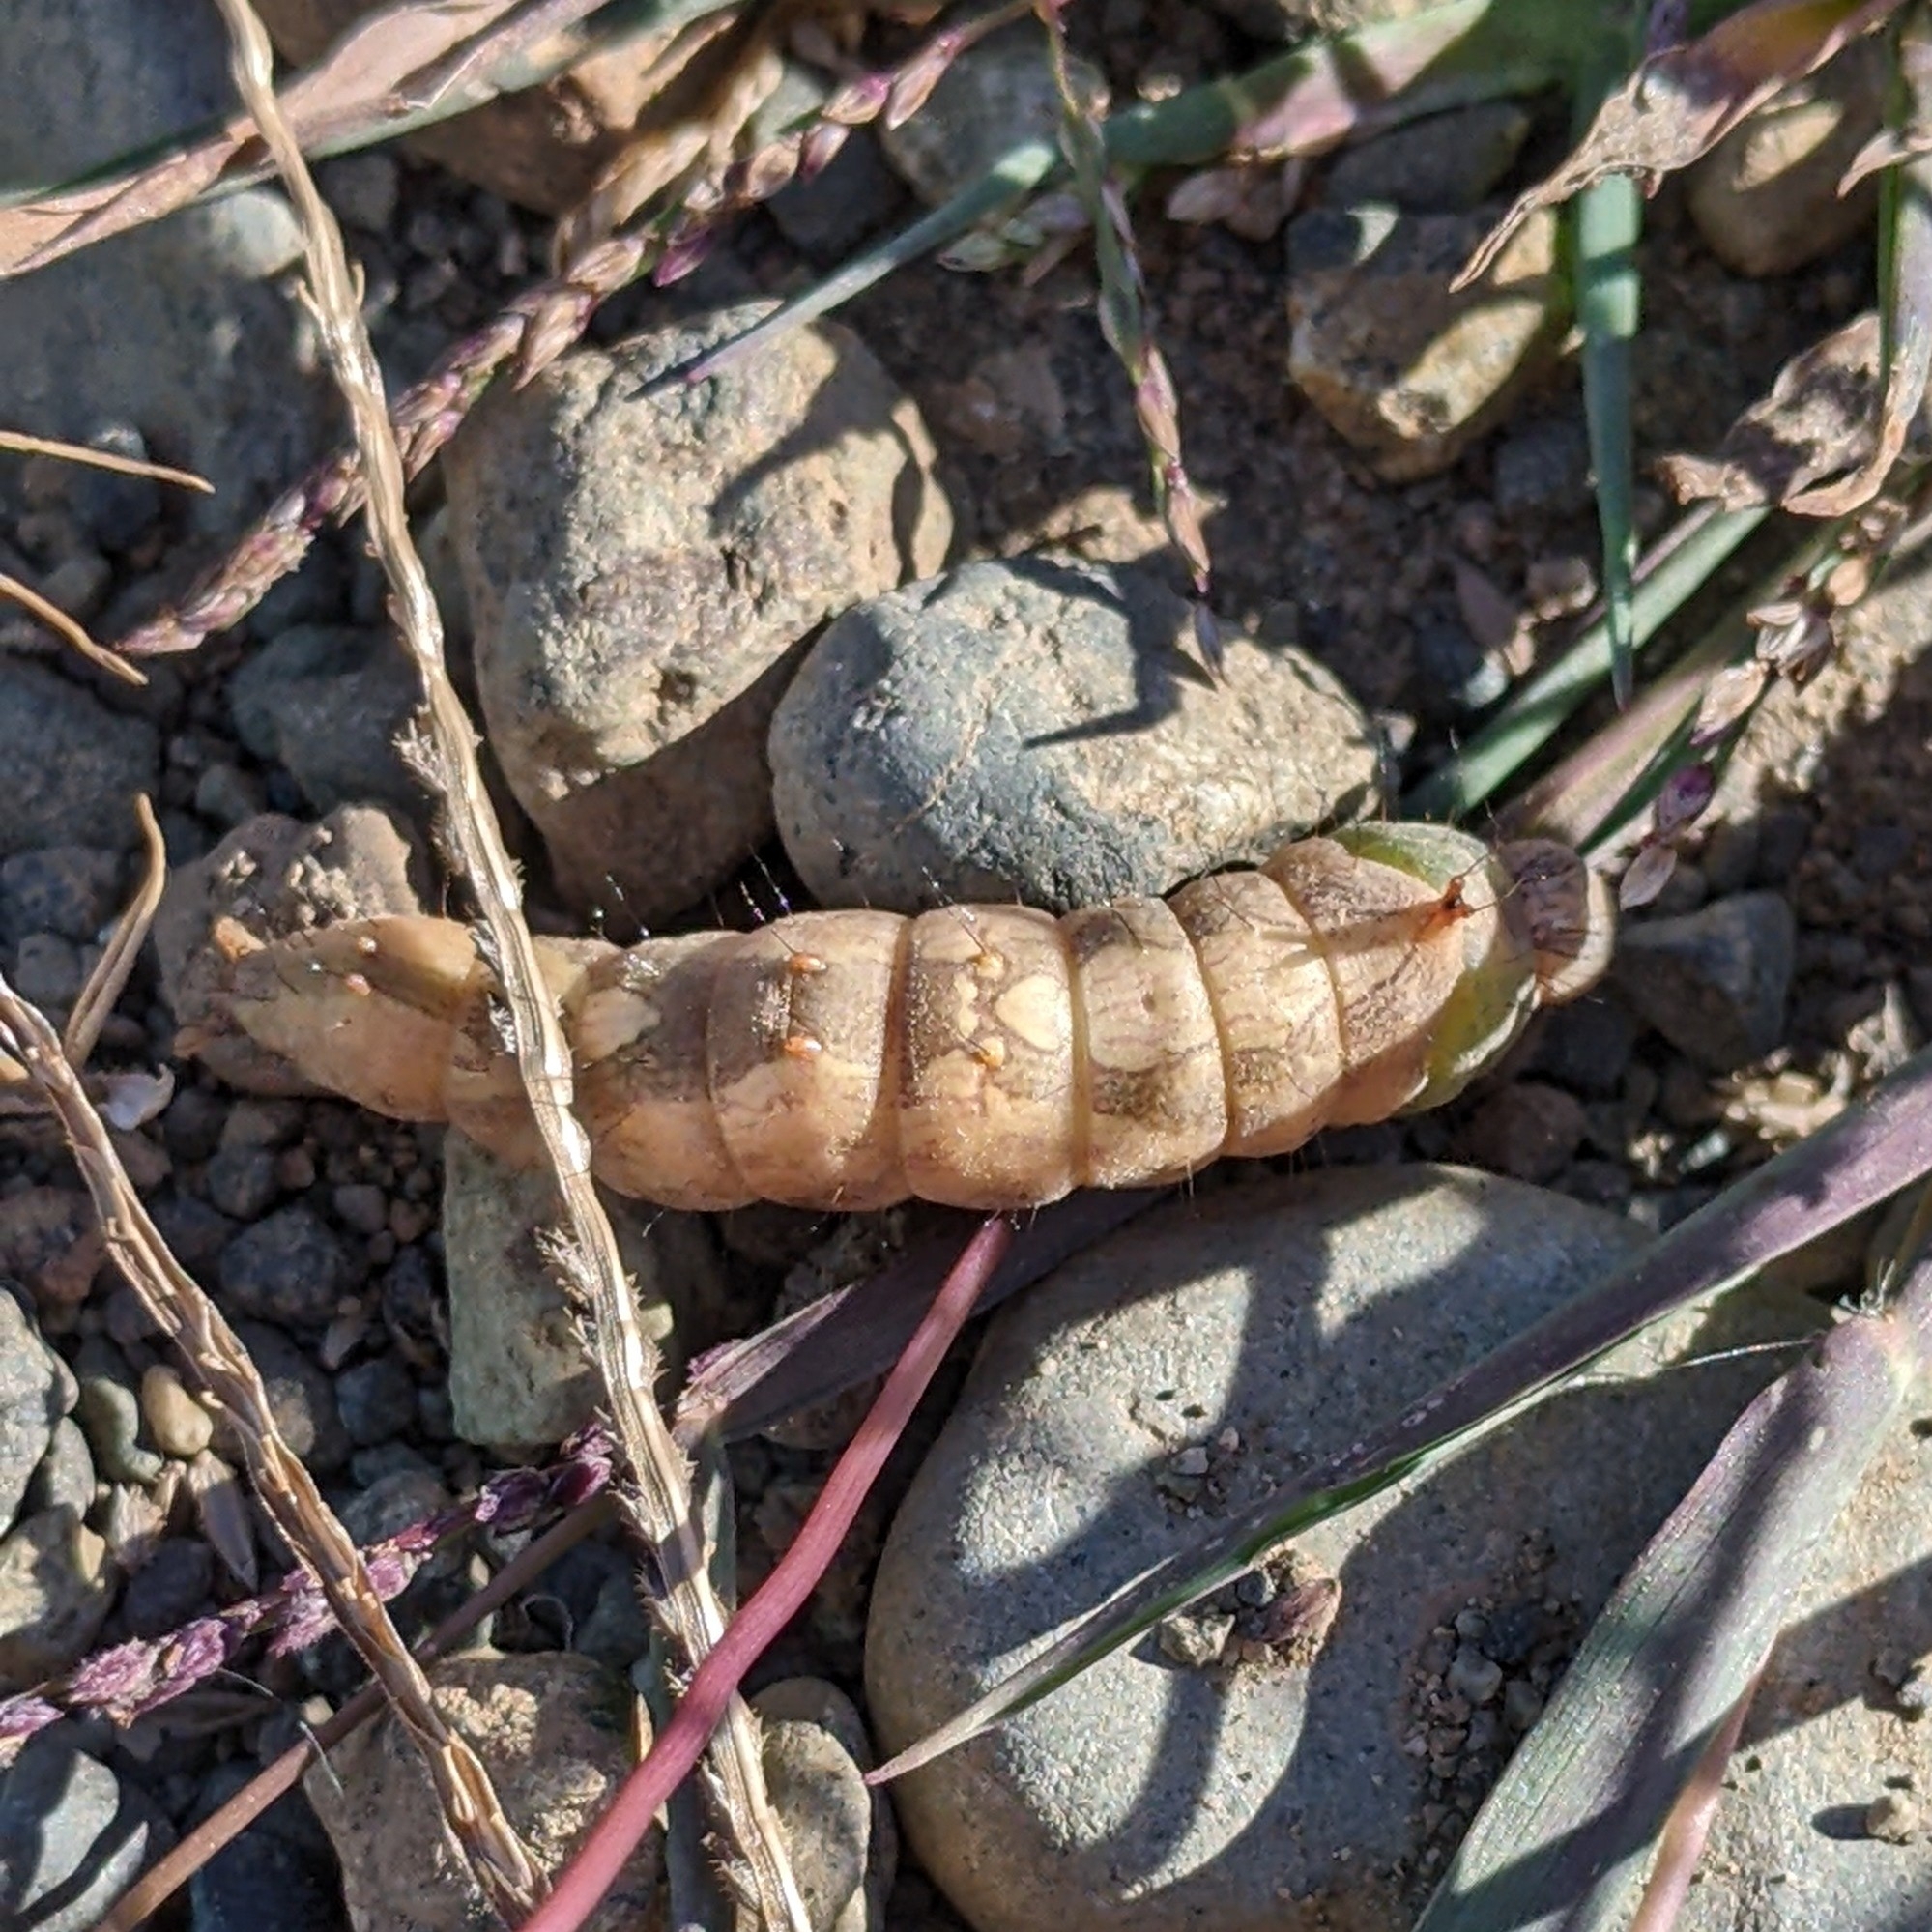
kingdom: Animalia
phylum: Arthropoda
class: Insecta
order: Lepidoptera
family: Notodontidae
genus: Schizura
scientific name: Schizura ipomaeae
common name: Morning-glory prominent
